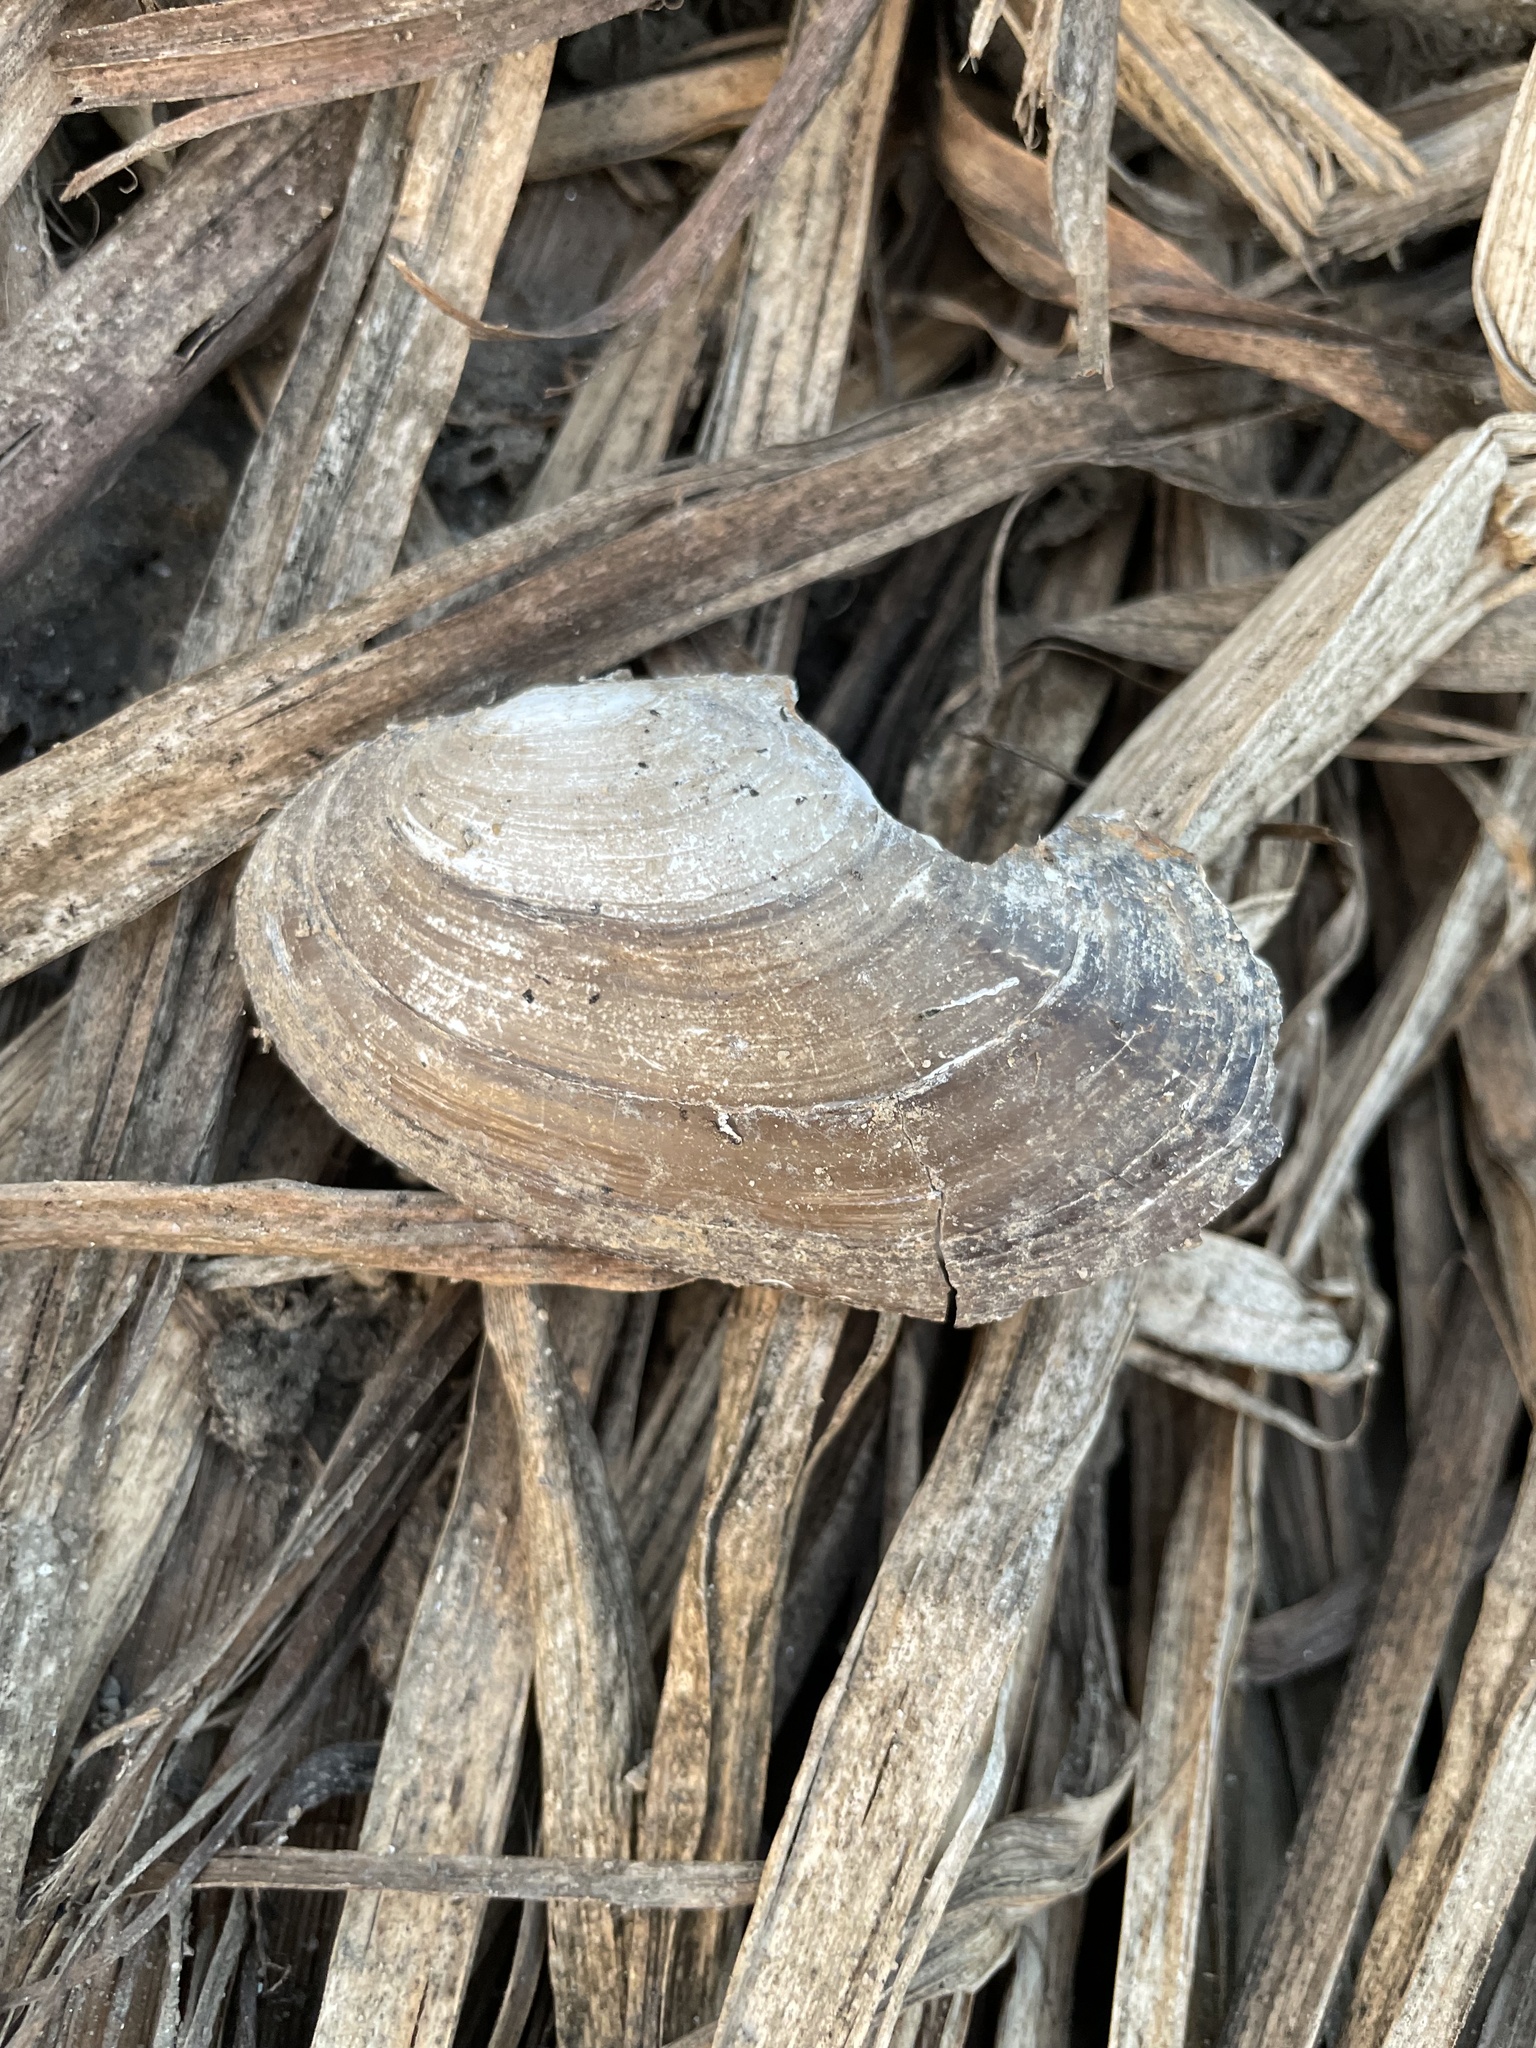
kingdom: Animalia
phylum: Mollusca
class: Bivalvia
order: Unionida
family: Unionidae
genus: Anodonta
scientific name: Anodonta anatina
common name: Duck mussel
